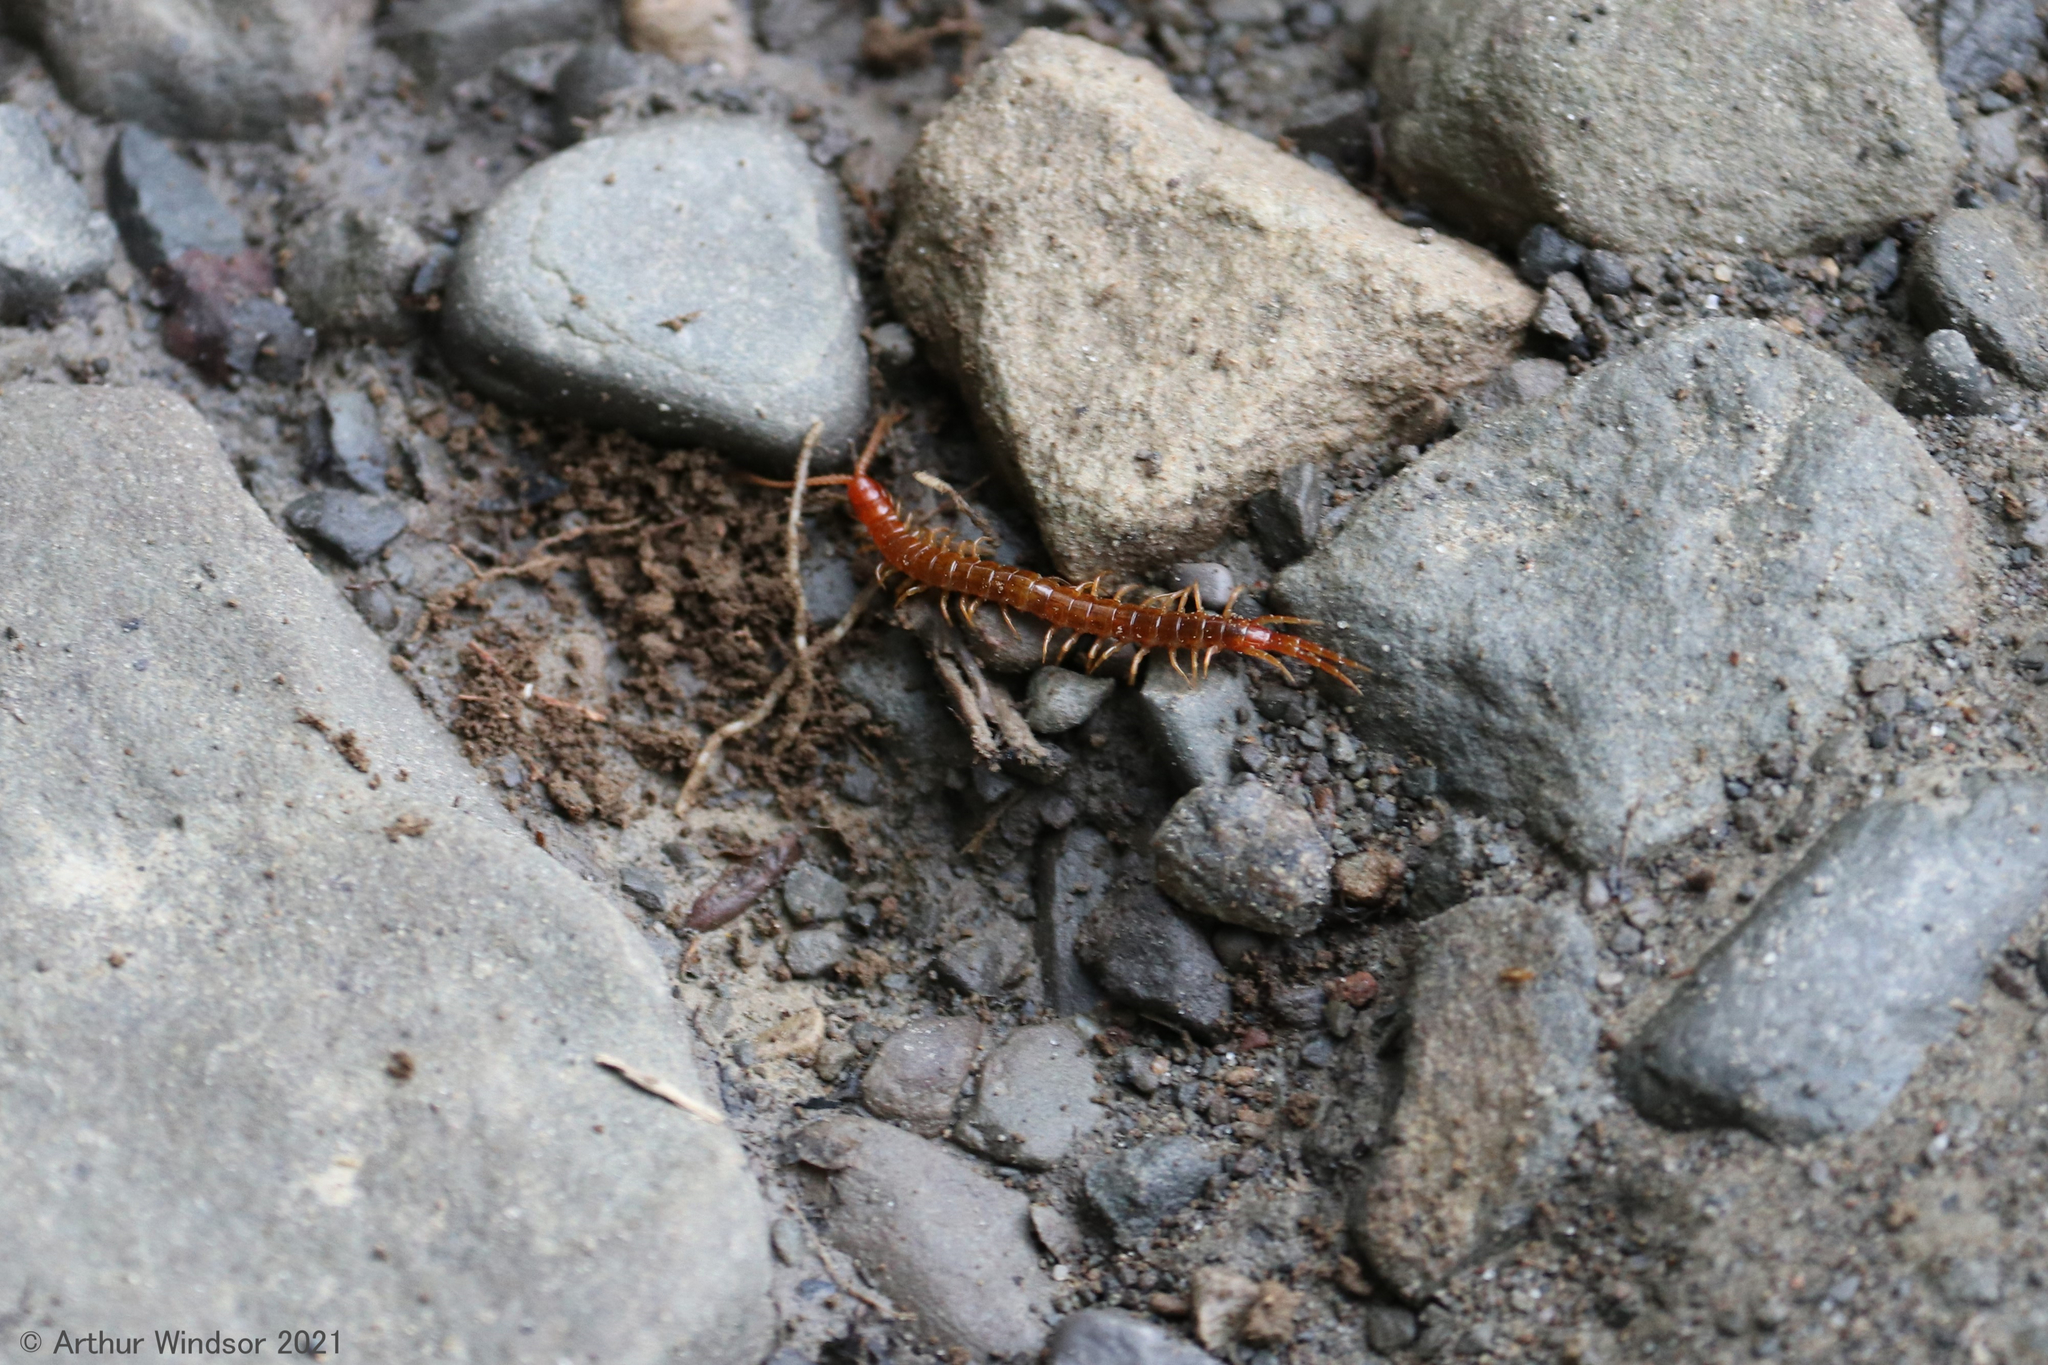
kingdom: Animalia
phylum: Arthropoda
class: Chilopoda
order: Scolopendromorpha
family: Scolopocryptopidae
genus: Scolopocryptops
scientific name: Scolopocryptops sexspinosus
